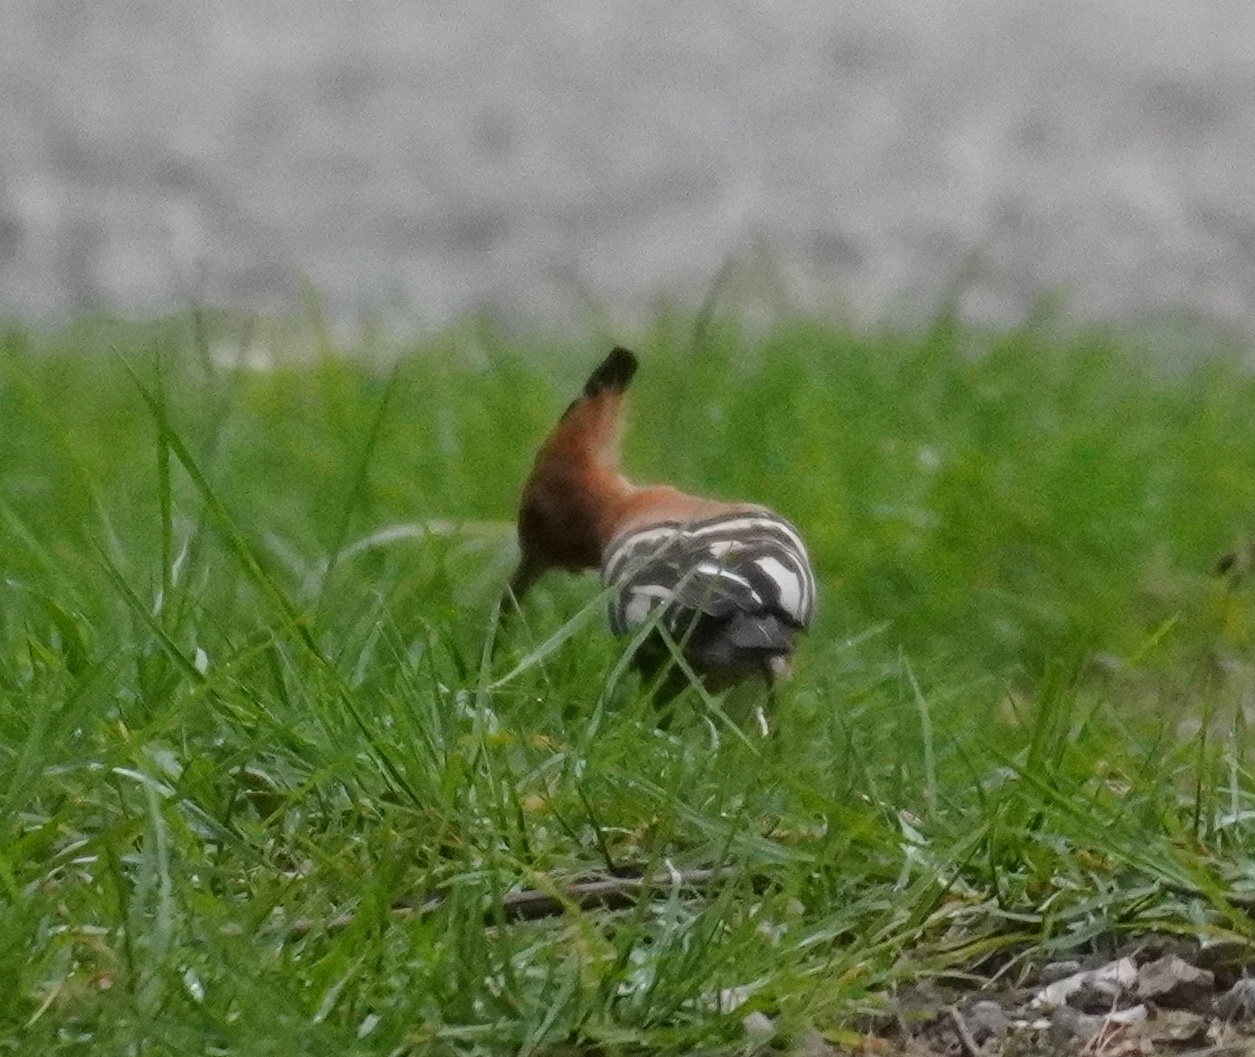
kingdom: Animalia
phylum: Chordata
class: Aves
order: Bucerotiformes
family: Upupidae
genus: Upupa
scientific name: Upupa africana
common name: African hoopoe
